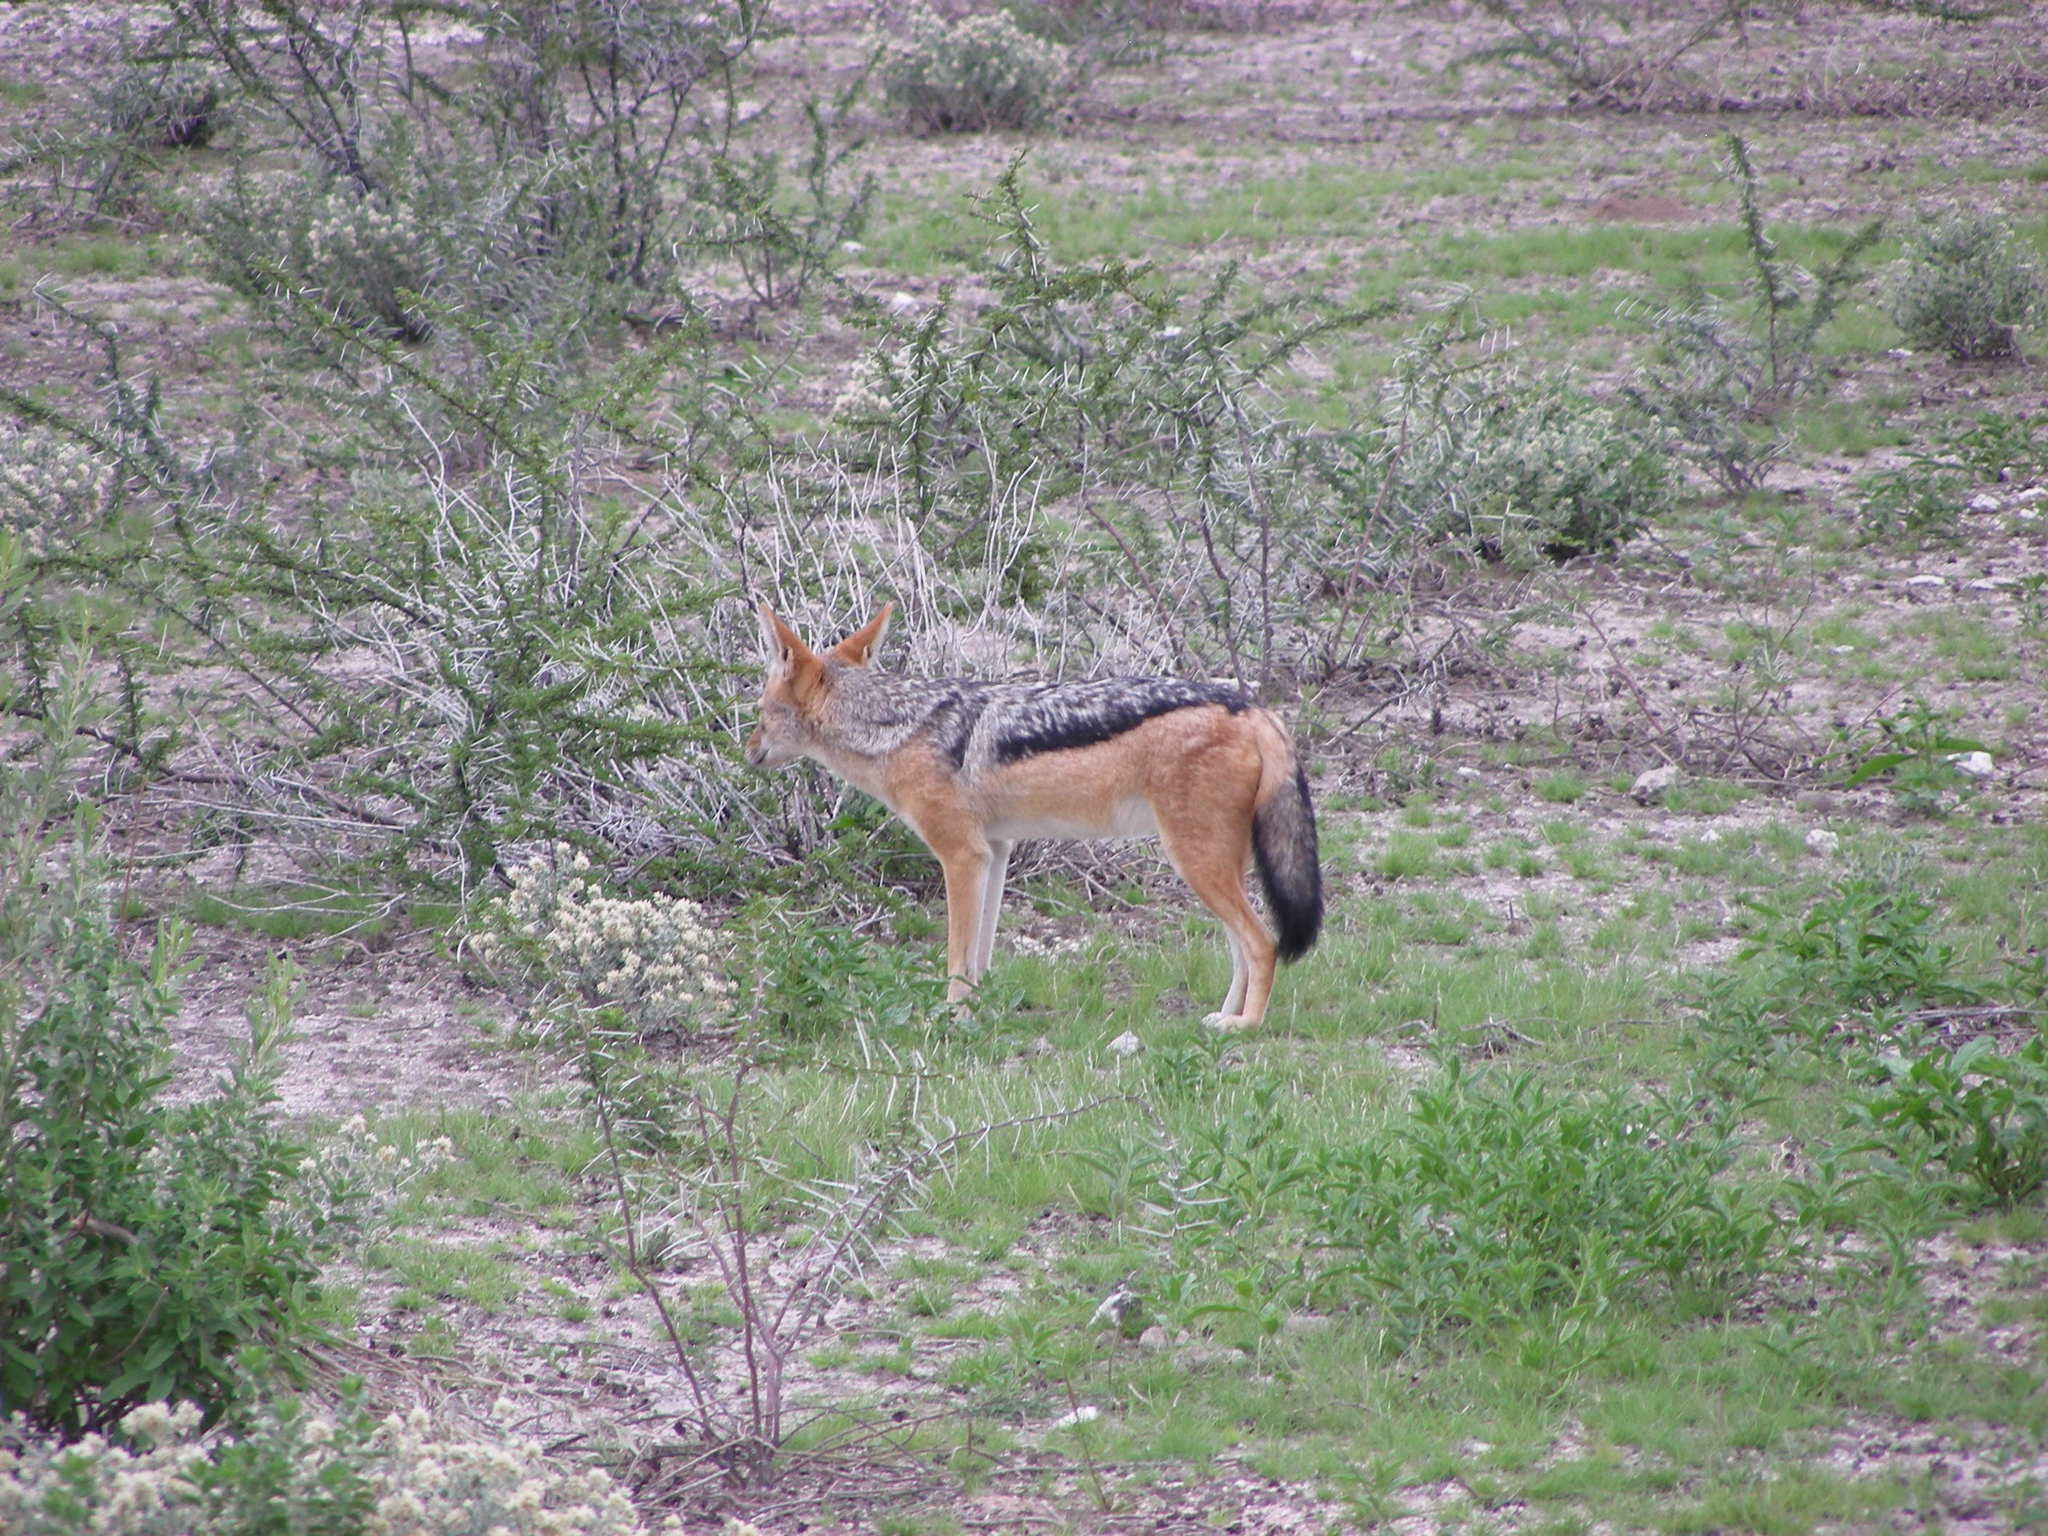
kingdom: Animalia
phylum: Chordata
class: Mammalia
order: Carnivora
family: Canidae
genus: Lupulella
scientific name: Lupulella
